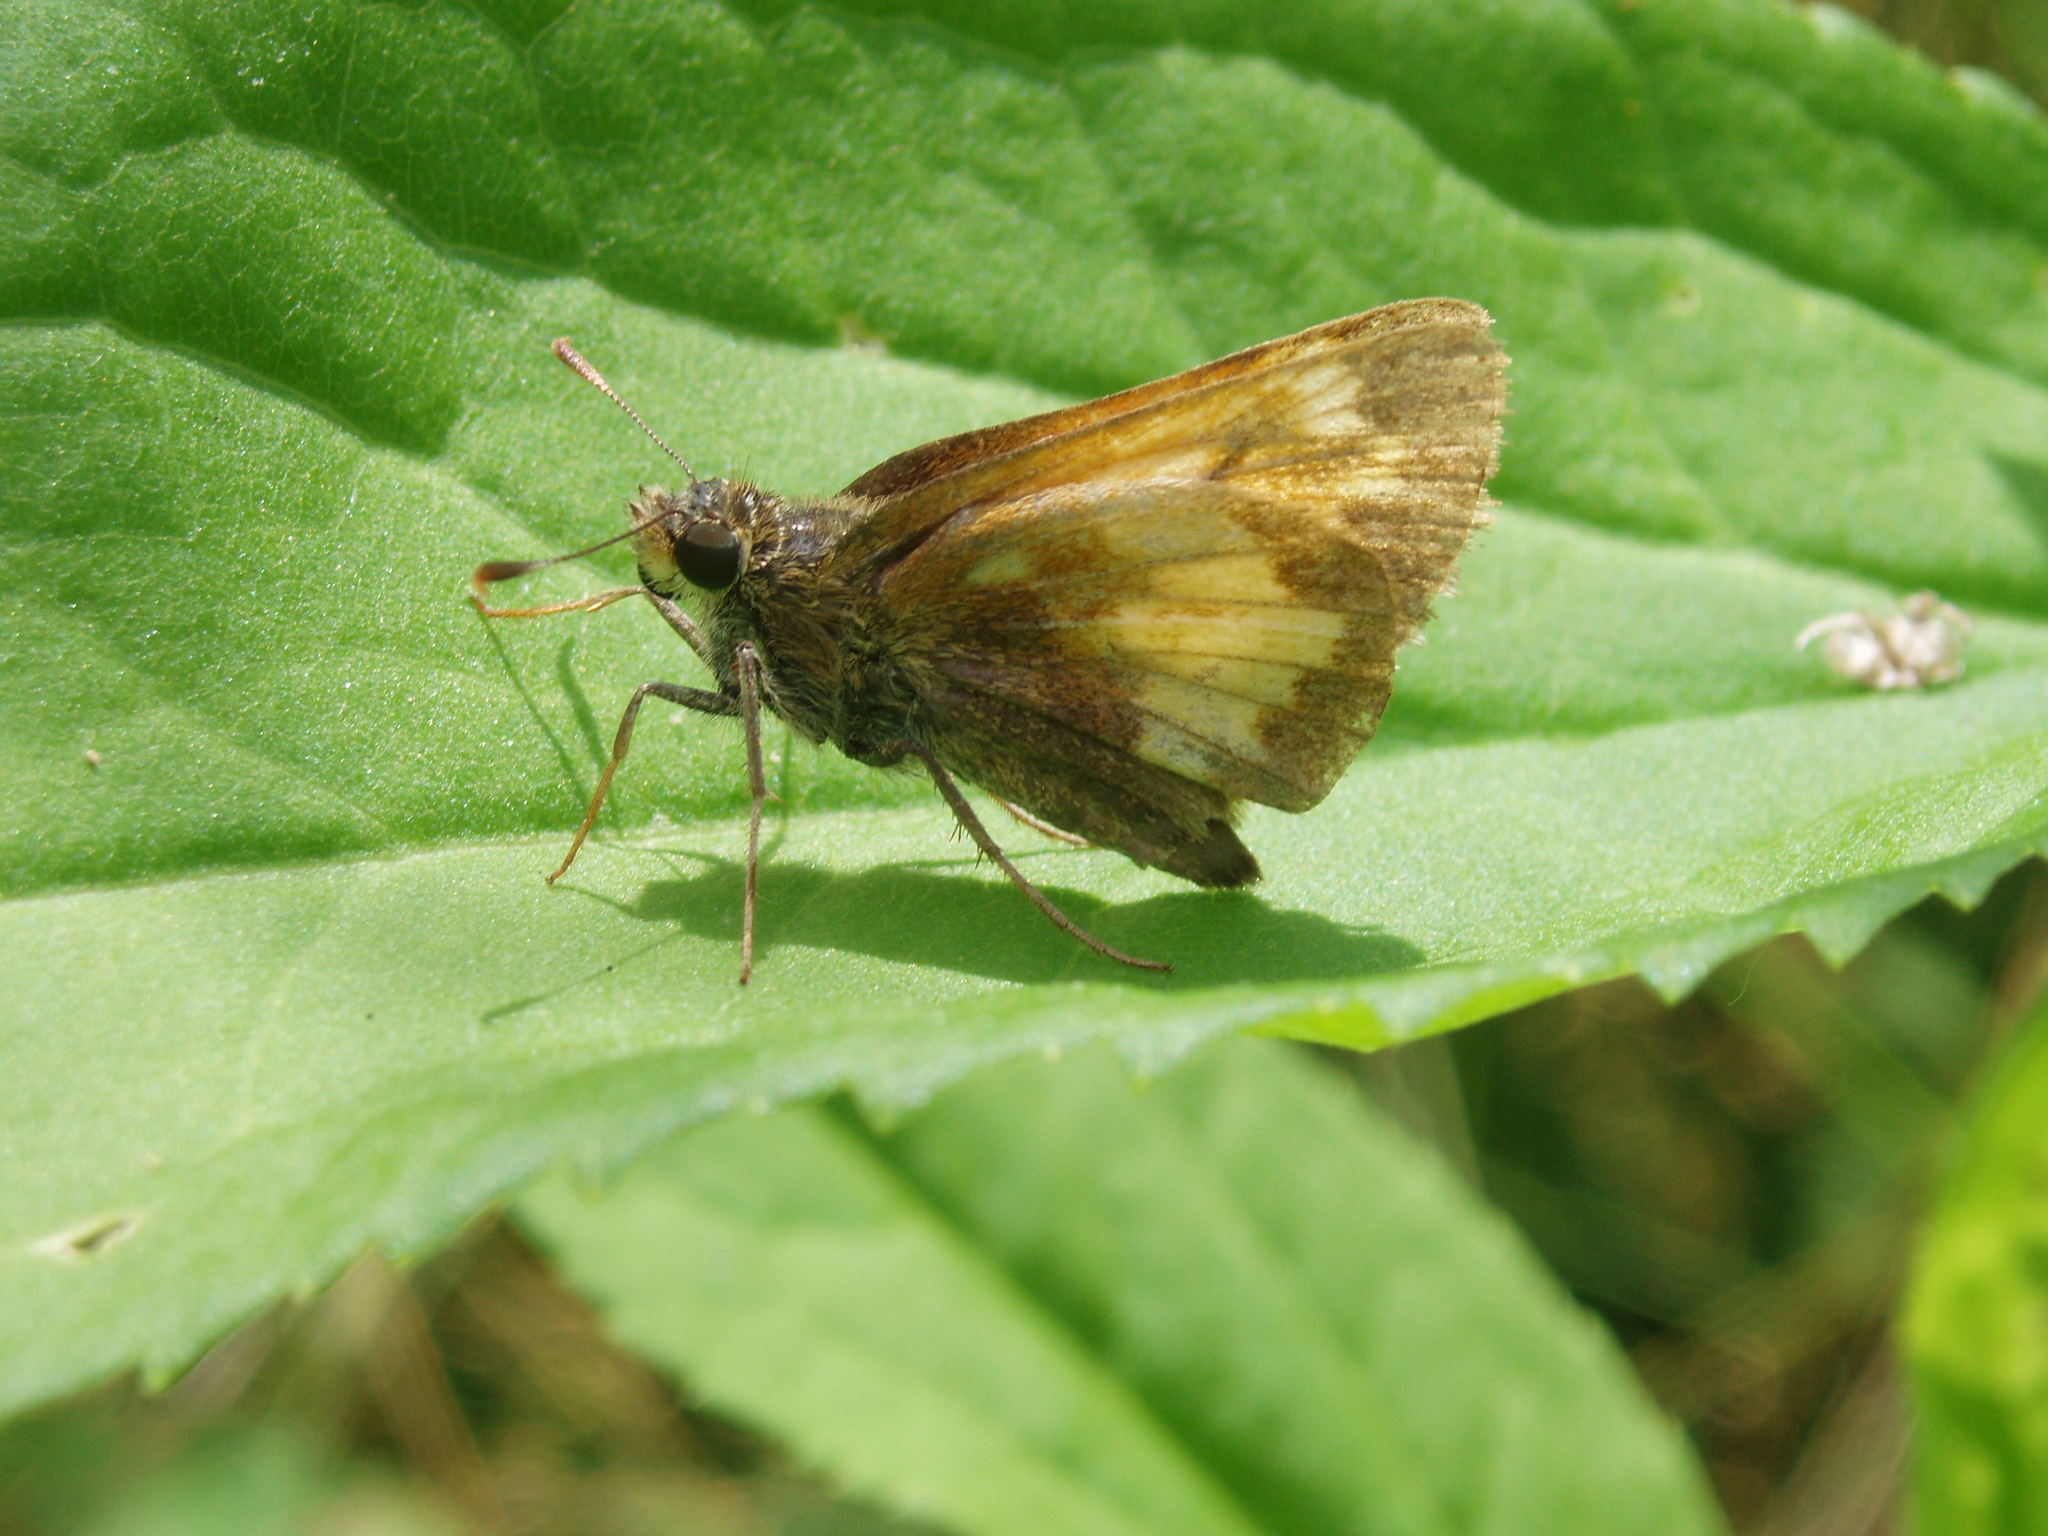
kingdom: Animalia
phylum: Arthropoda
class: Insecta
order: Lepidoptera
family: Hesperiidae
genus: Lon
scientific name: Lon hobomok
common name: Hobomok skipper
